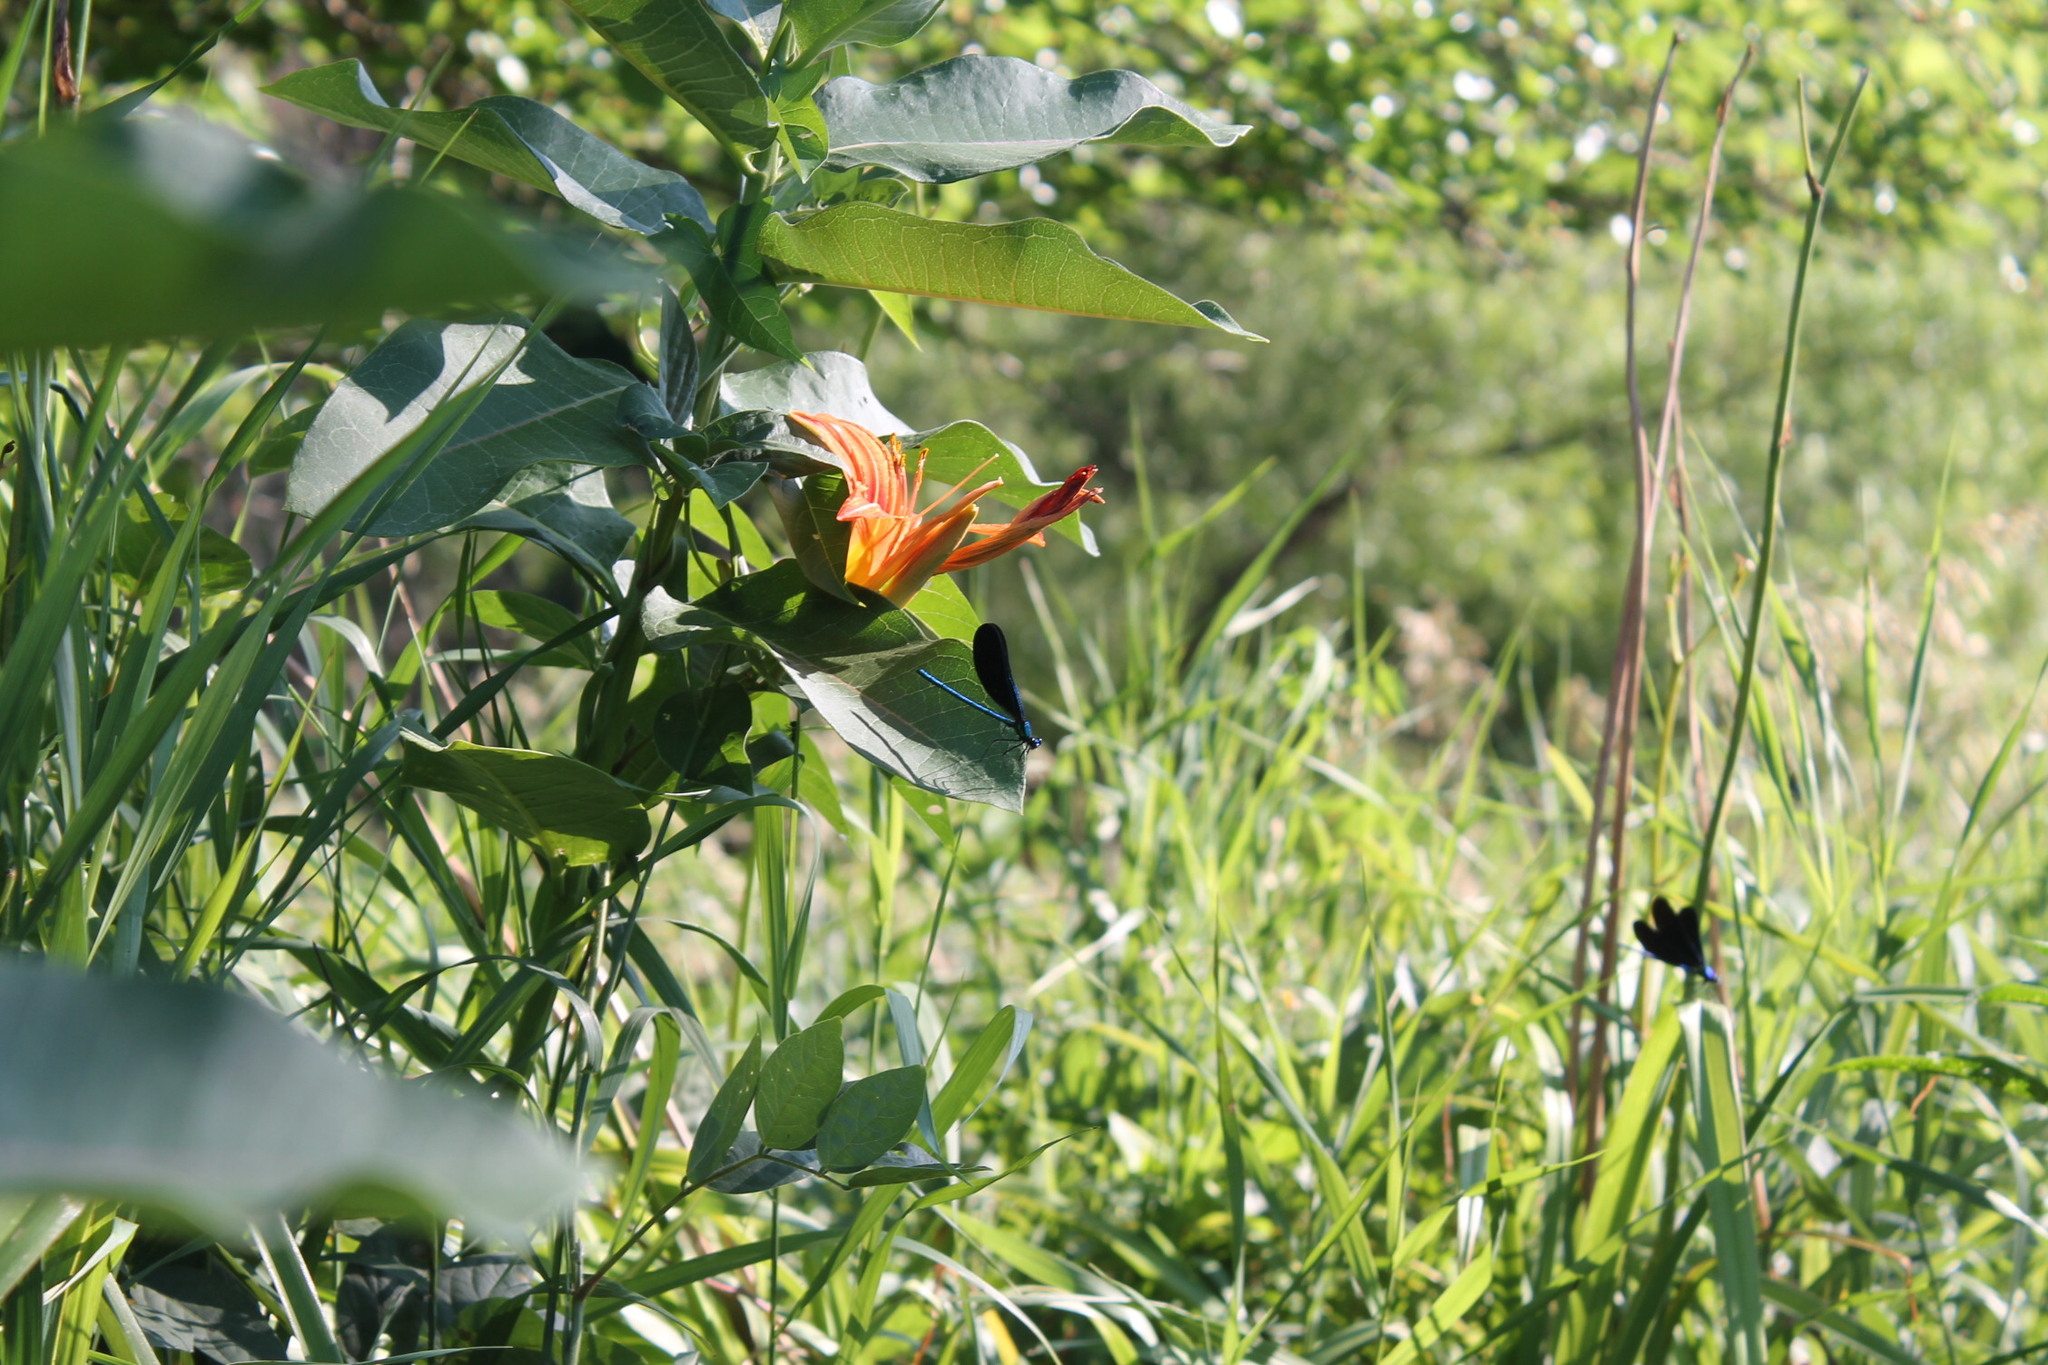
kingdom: Animalia
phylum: Arthropoda
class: Insecta
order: Odonata
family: Calopterygidae
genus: Calopteryx
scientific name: Calopteryx maculata
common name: Ebony jewelwing
